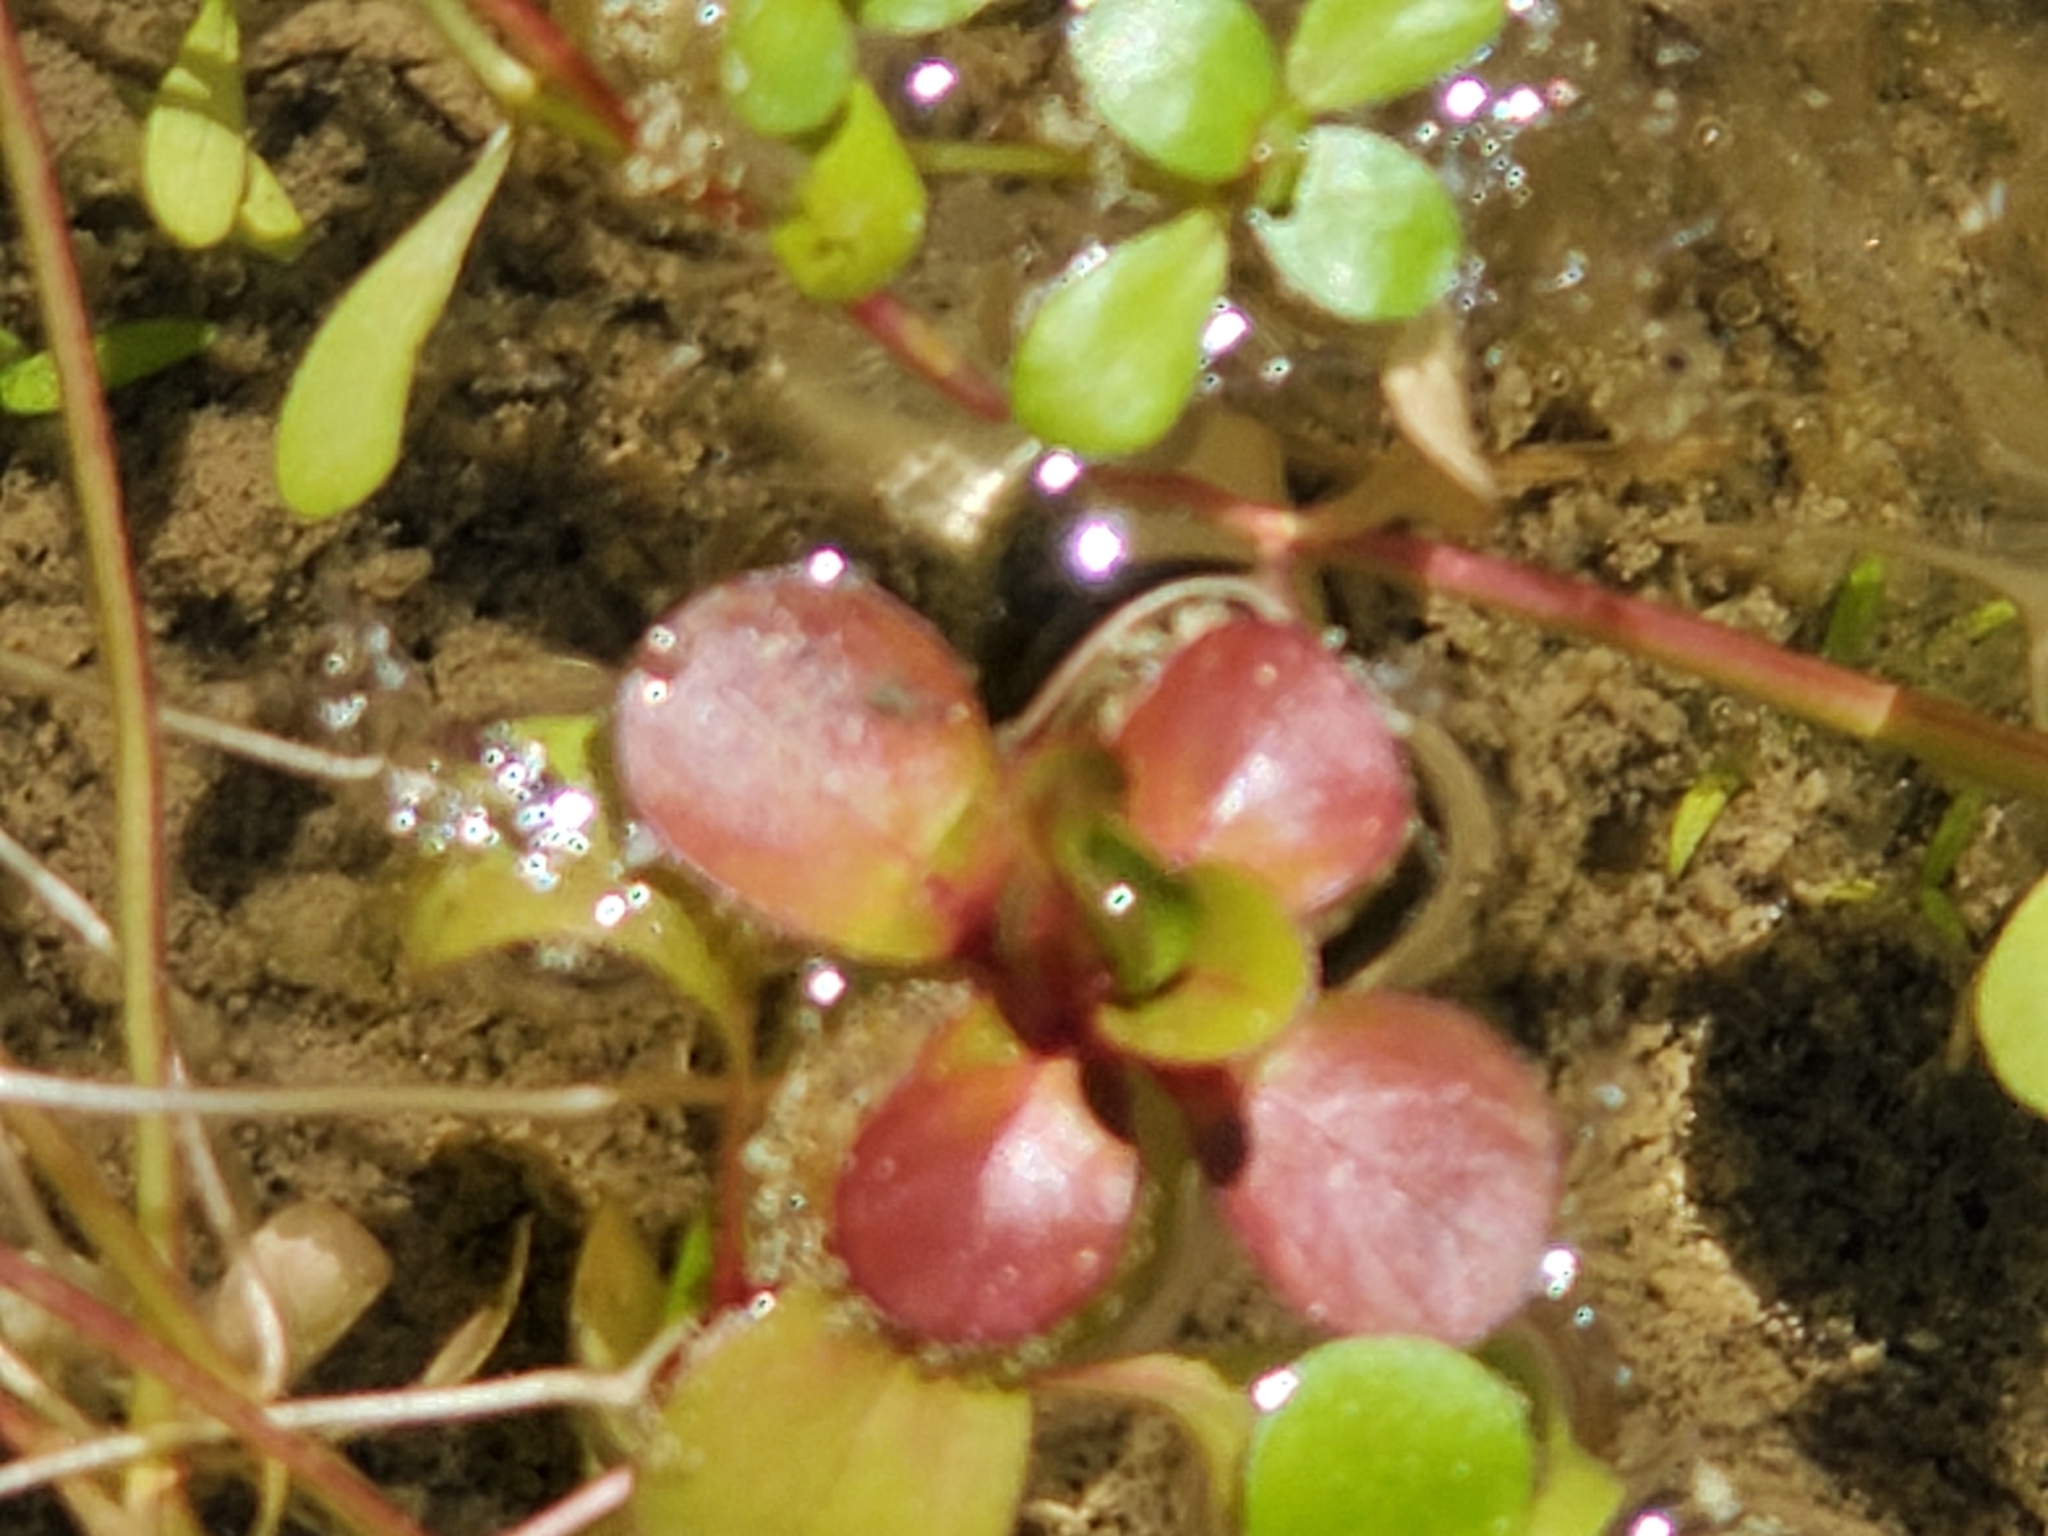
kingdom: Plantae
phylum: Tracheophyta
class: Magnoliopsida
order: Myrtales
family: Lythraceae
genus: Lythrum
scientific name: Lythrum portula
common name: Water purslane
